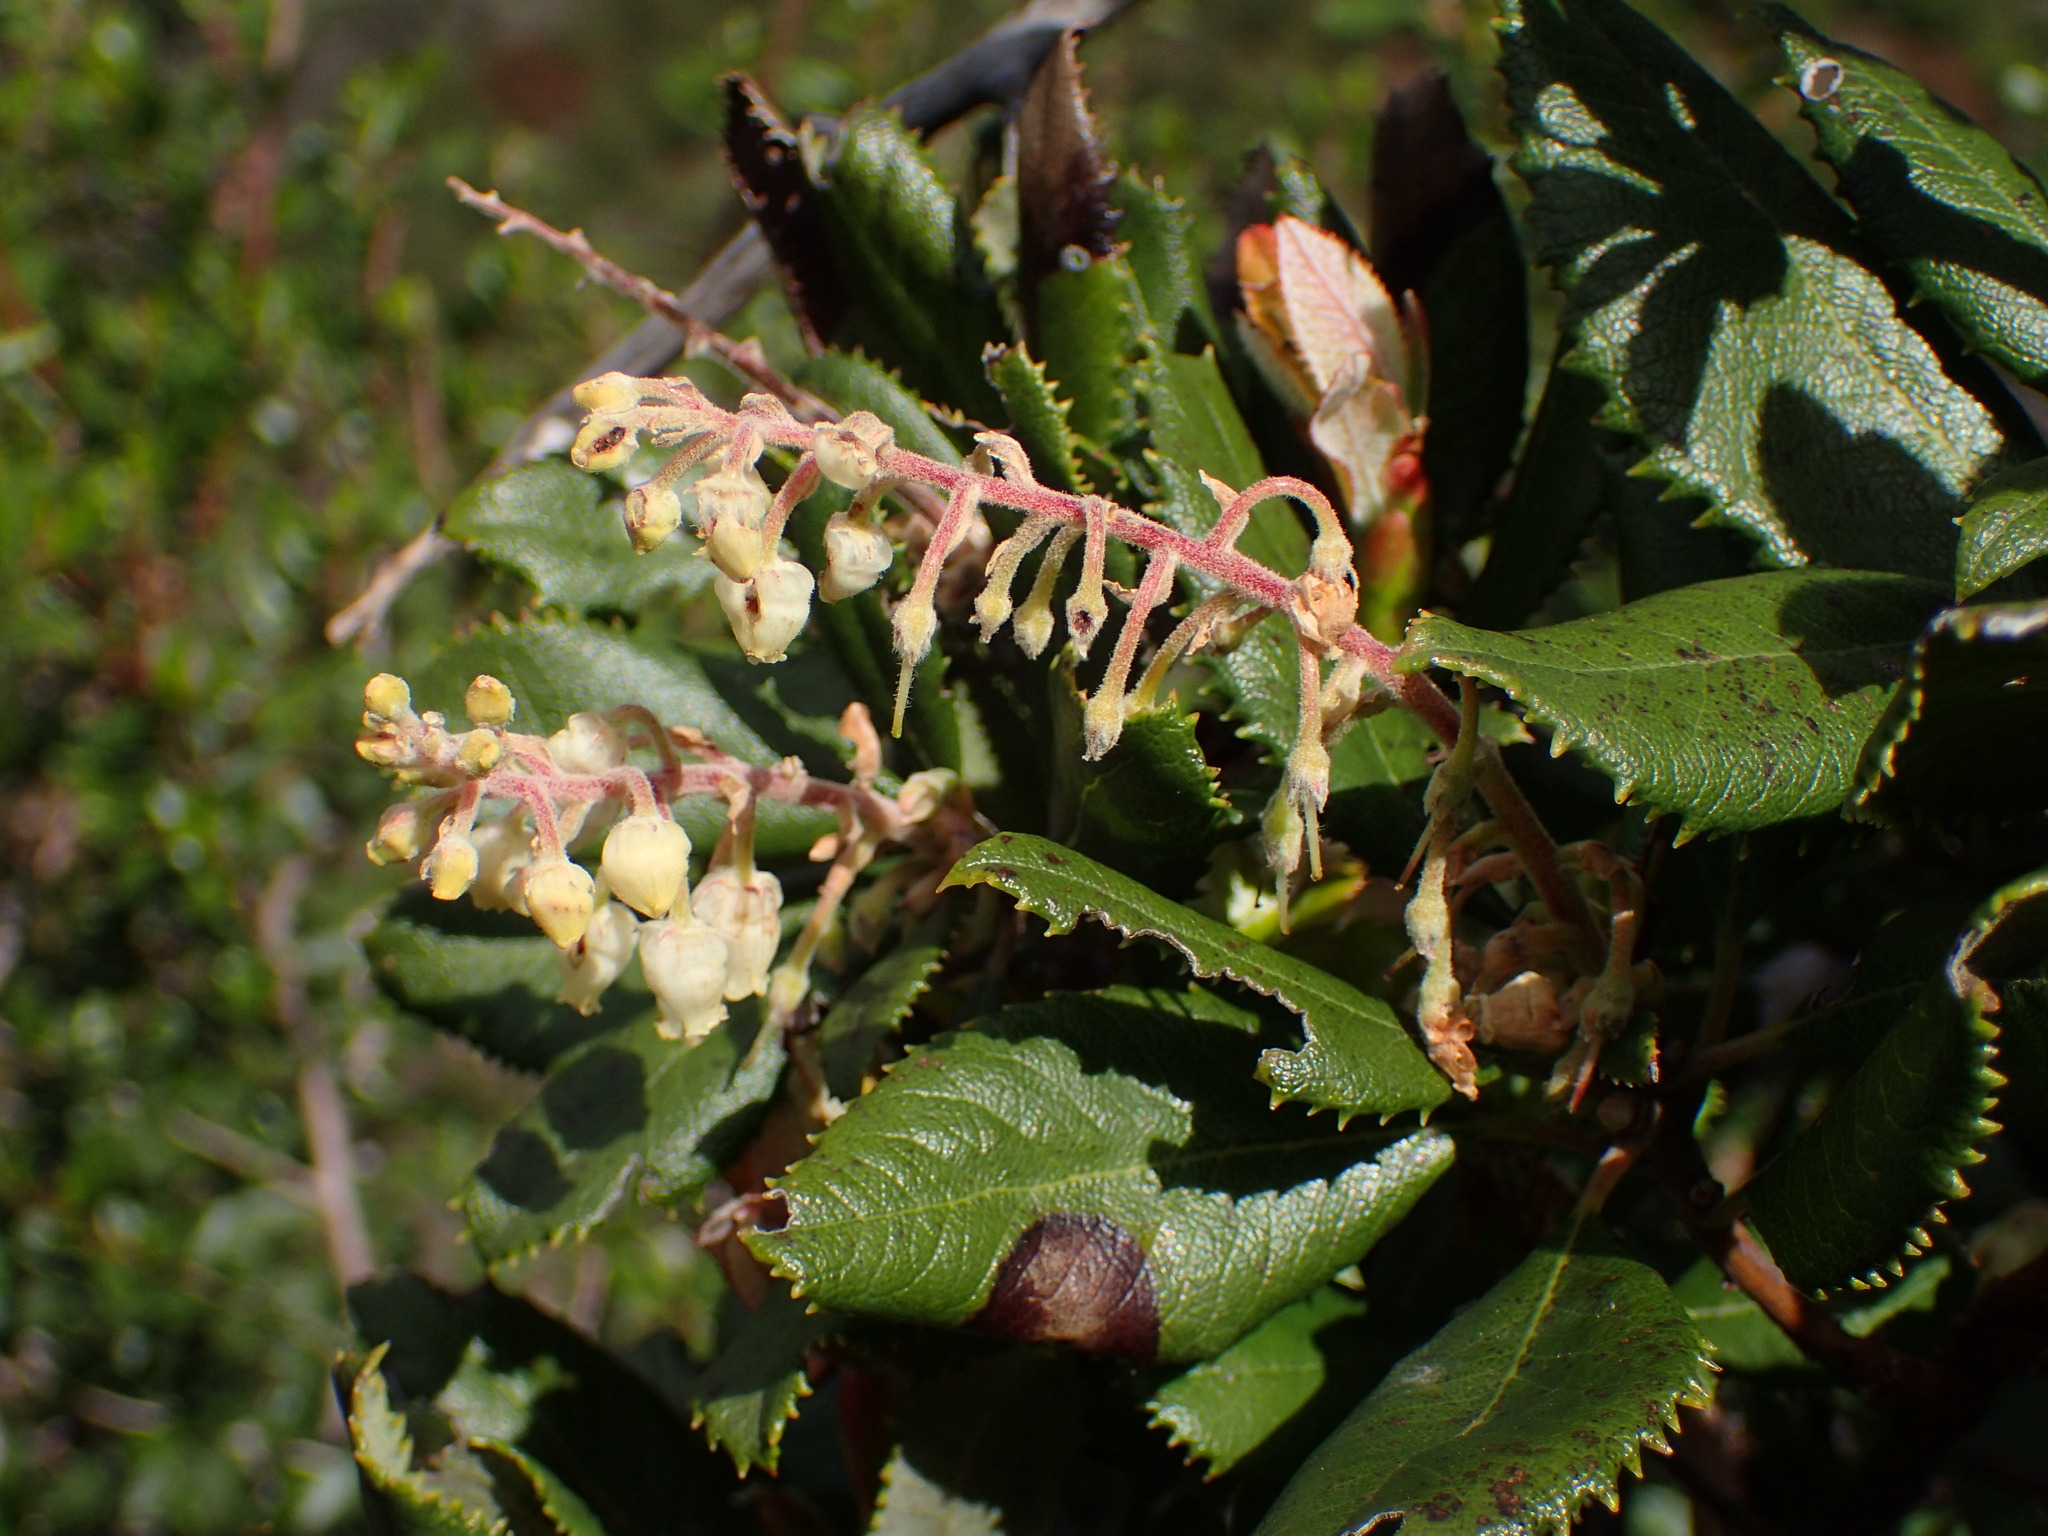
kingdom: Plantae
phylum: Tracheophyta
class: Magnoliopsida
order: Ericales
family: Ericaceae
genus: Comarostaphylis
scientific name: Comarostaphylis diversifolia
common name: Summer-holly
